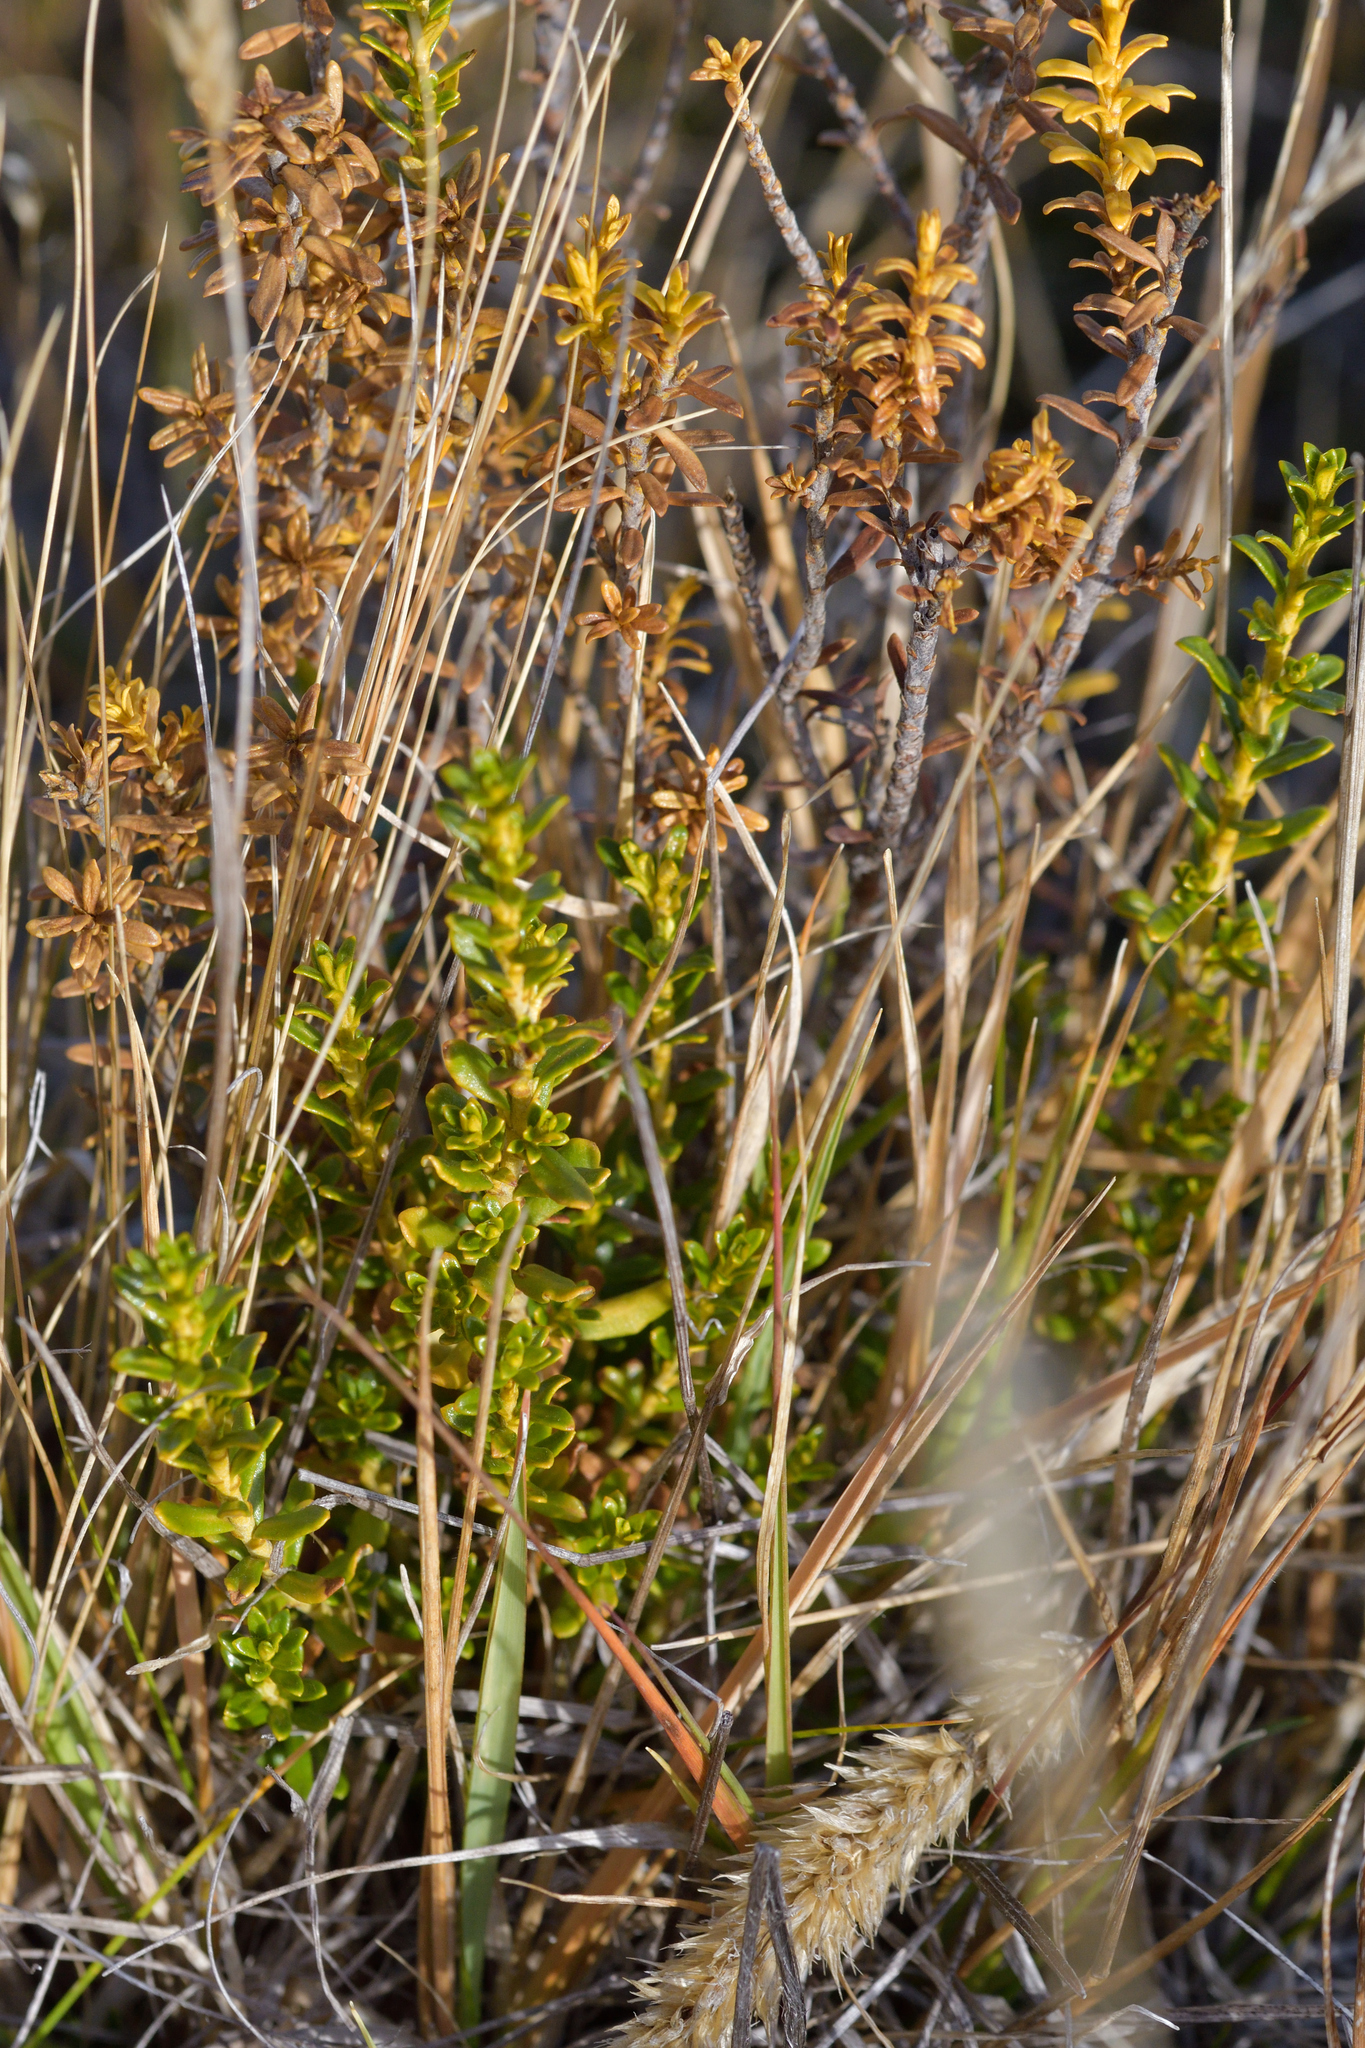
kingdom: Plantae
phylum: Tracheophyta
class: Magnoliopsida
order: Asterales
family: Asteraceae
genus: Ozothamnus
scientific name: Ozothamnus leptophyllus
